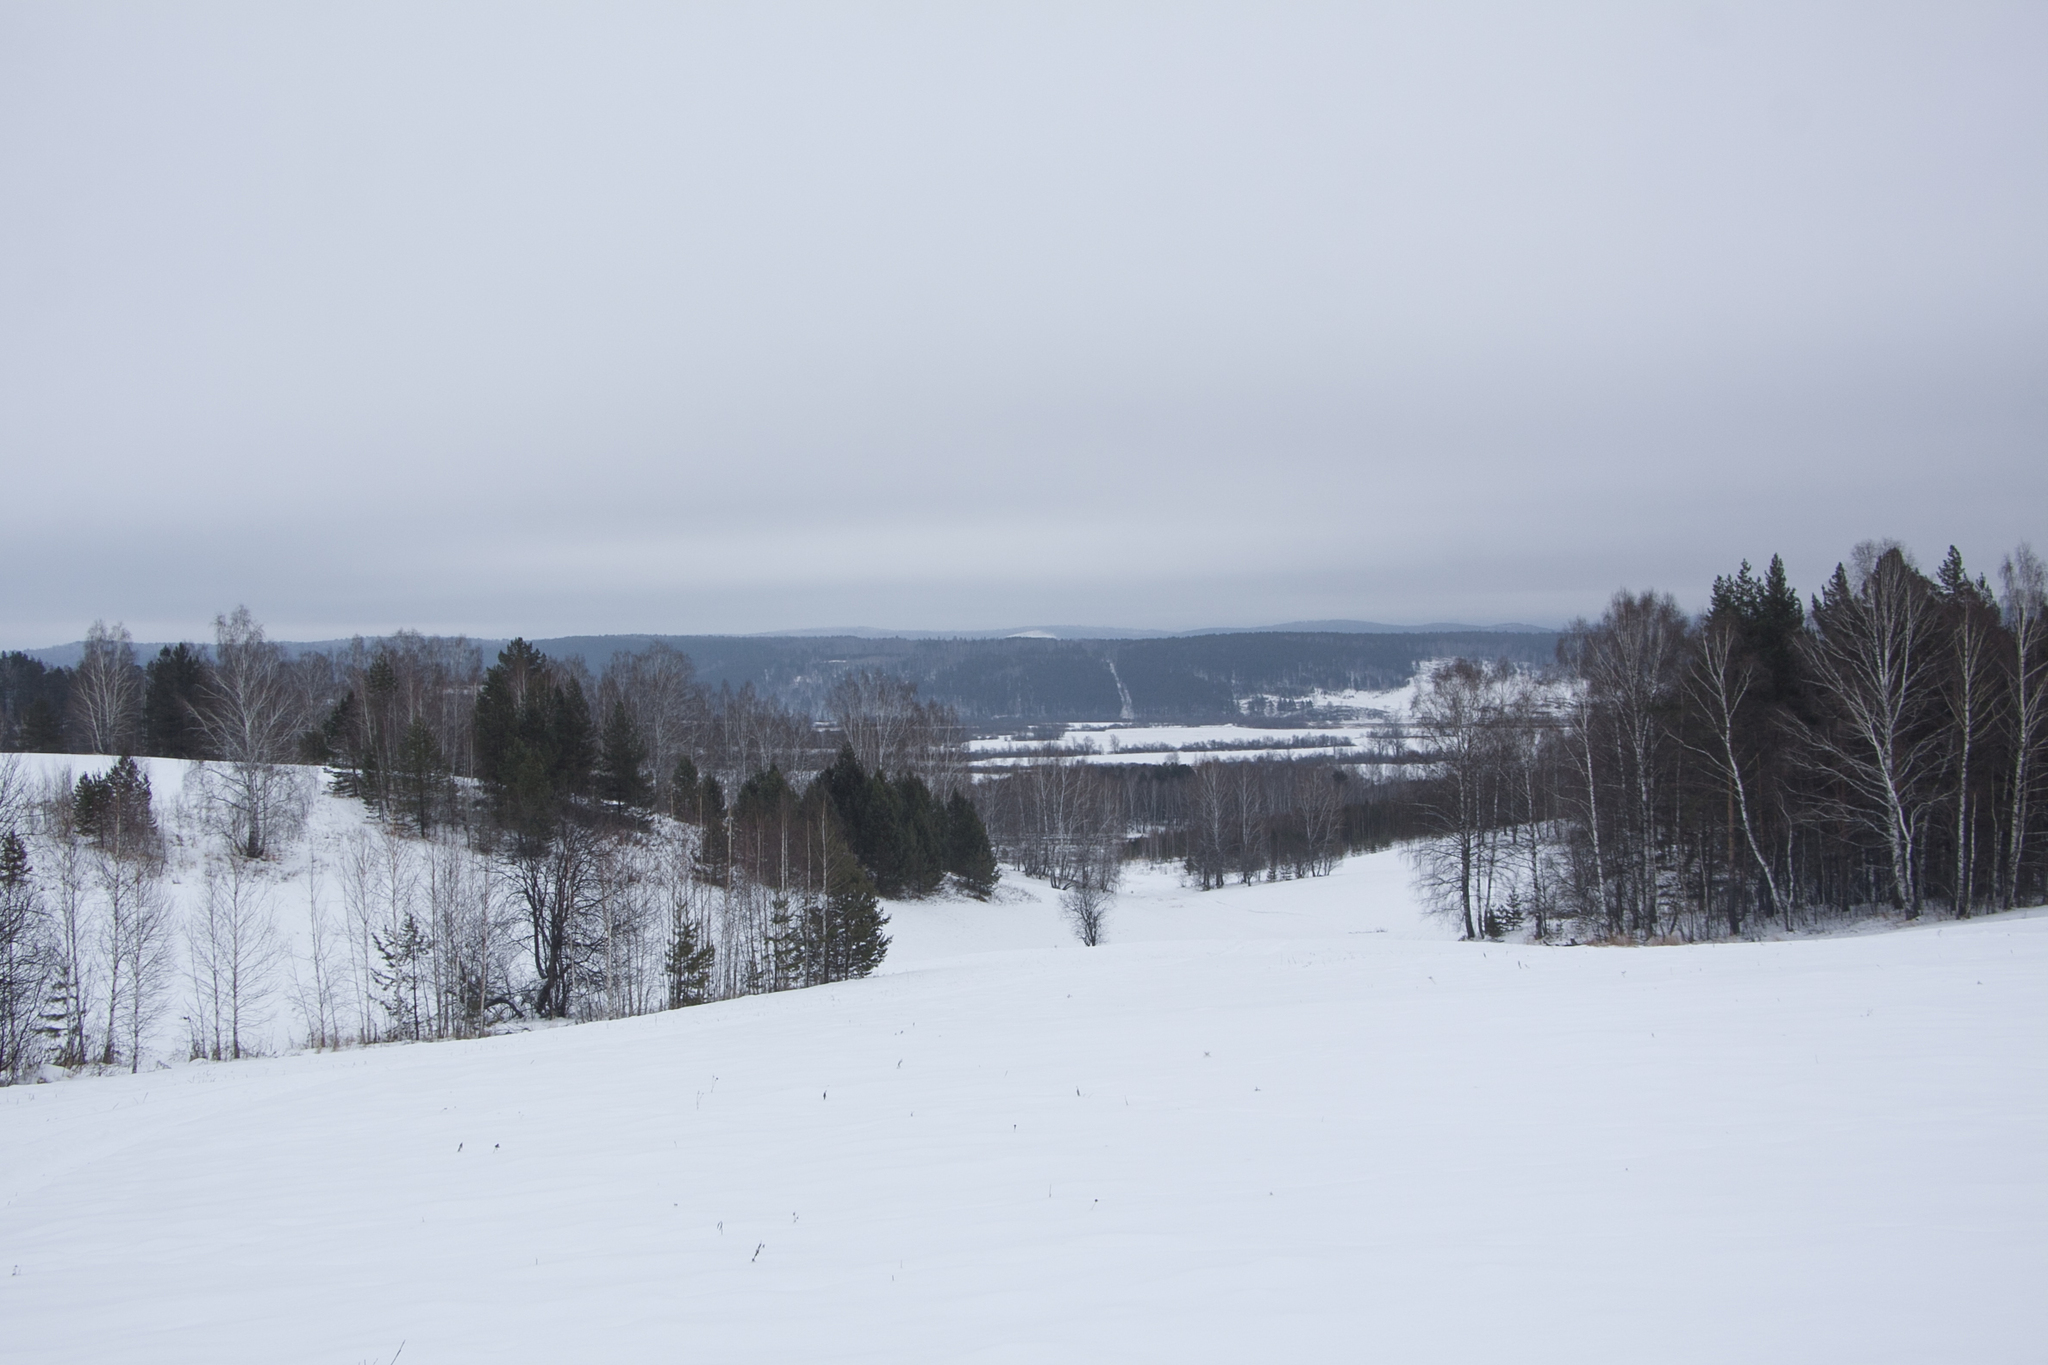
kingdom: Plantae
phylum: Tracheophyta
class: Magnoliopsida
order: Fagales
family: Betulaceae
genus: Betula
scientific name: Betula pendula
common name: Silver birch
